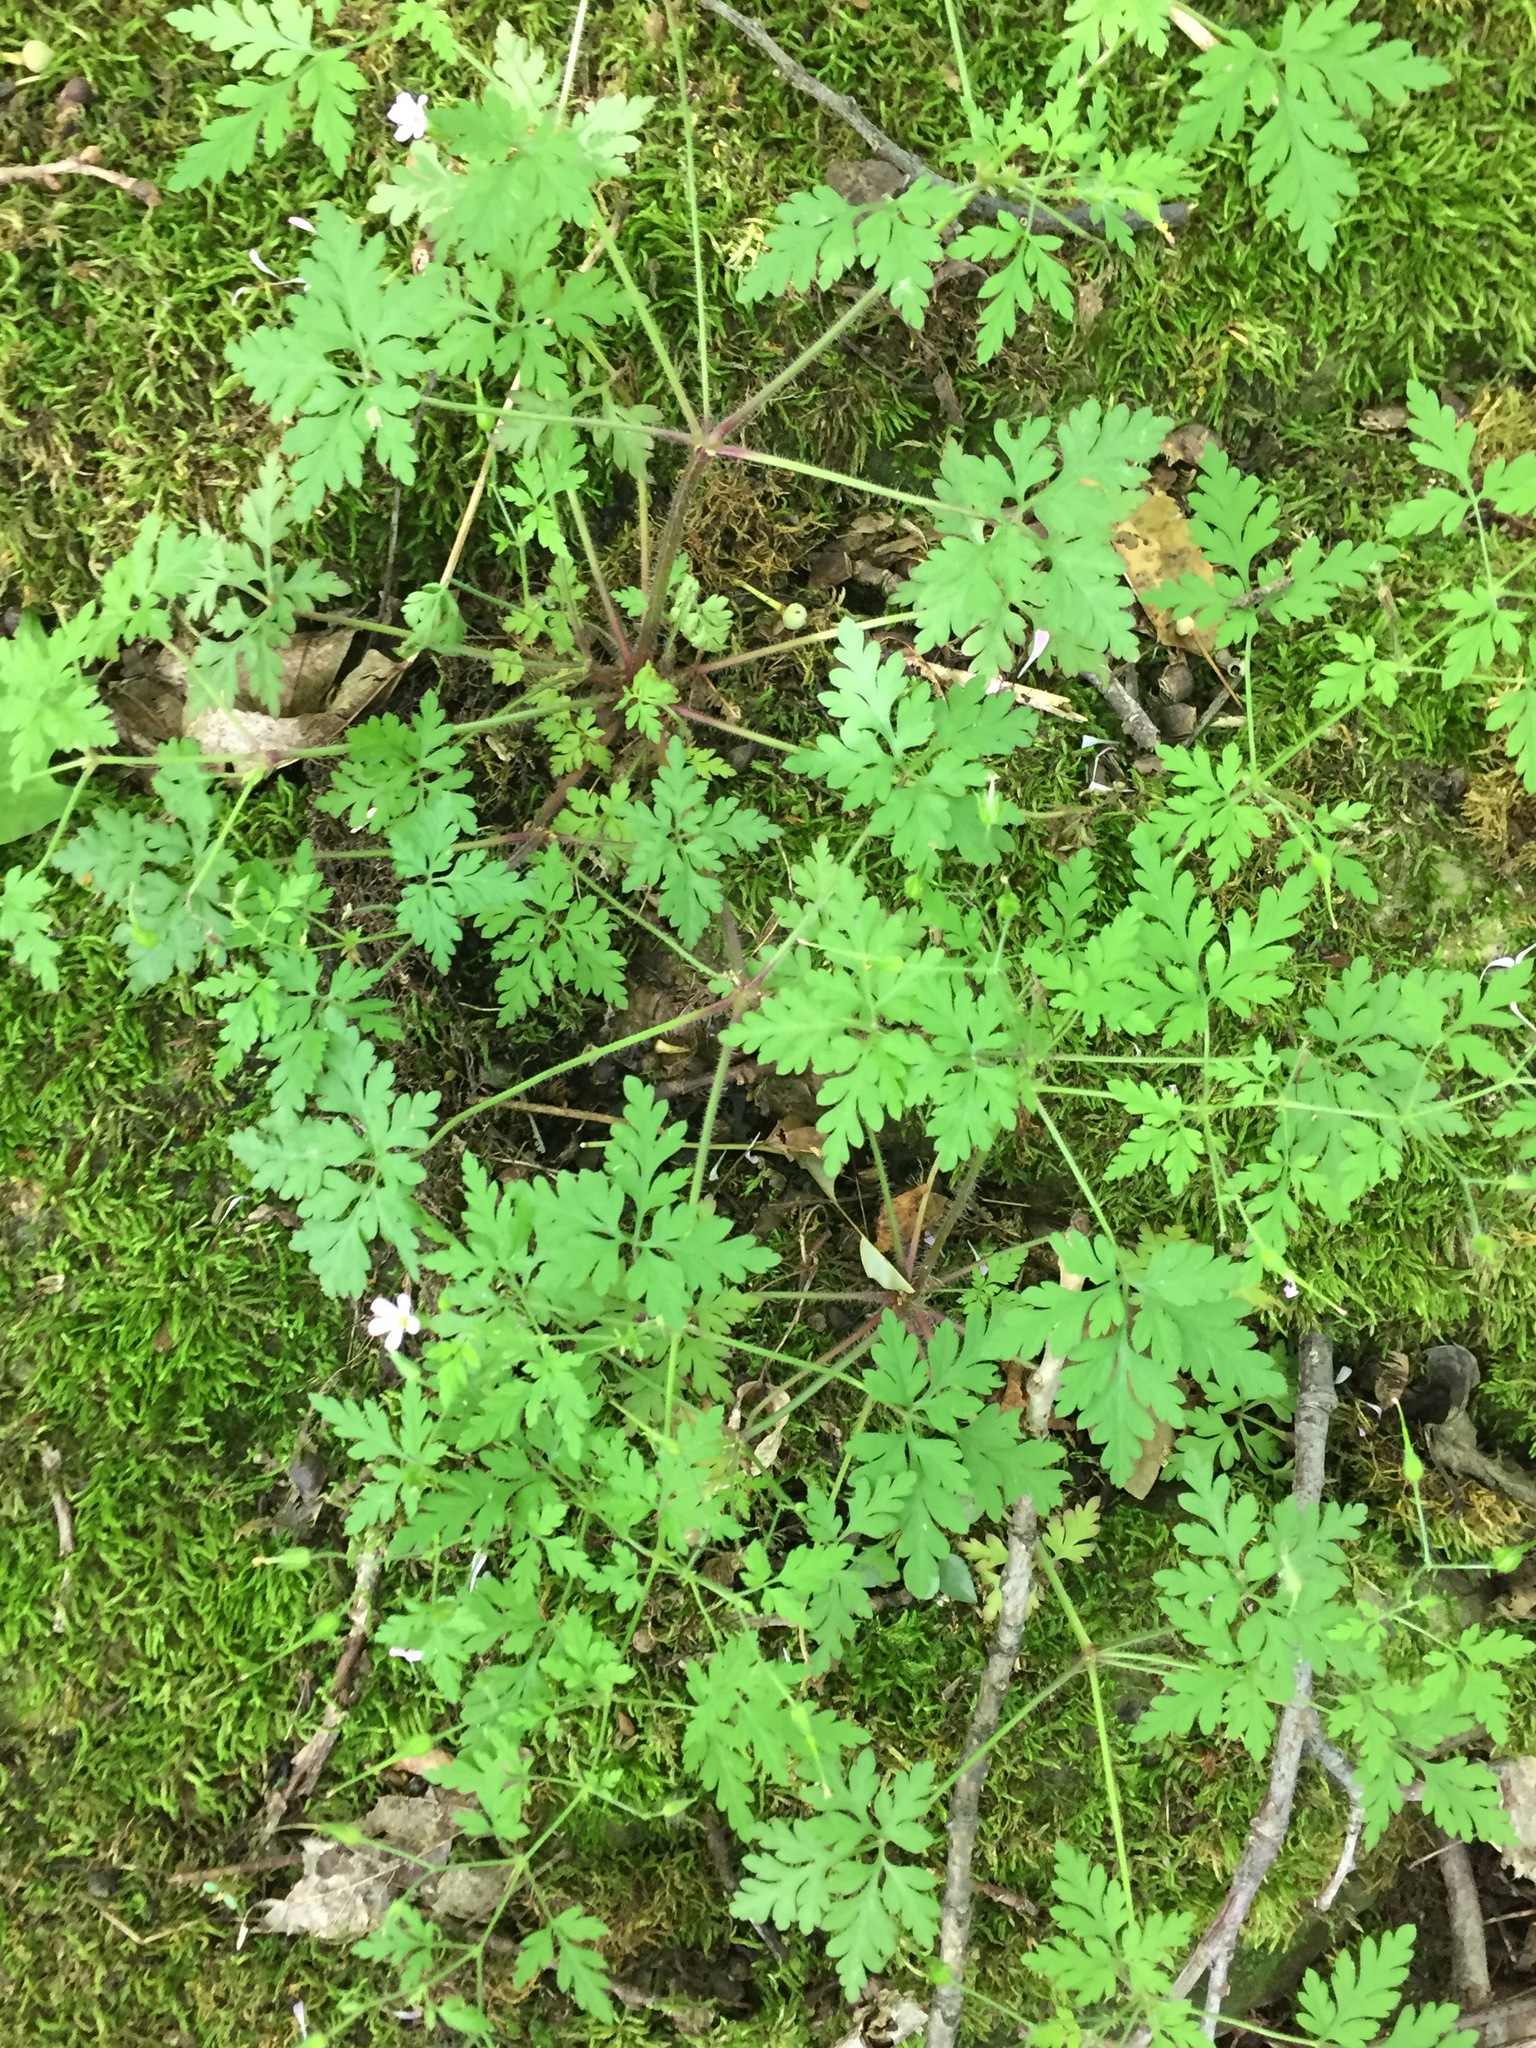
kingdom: Plantae
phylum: Tracheophyta
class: Magnoliopsida
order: Geraniales
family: Geraniaceae
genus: Geranium
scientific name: Geranium robertianum
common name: Herb-robert
